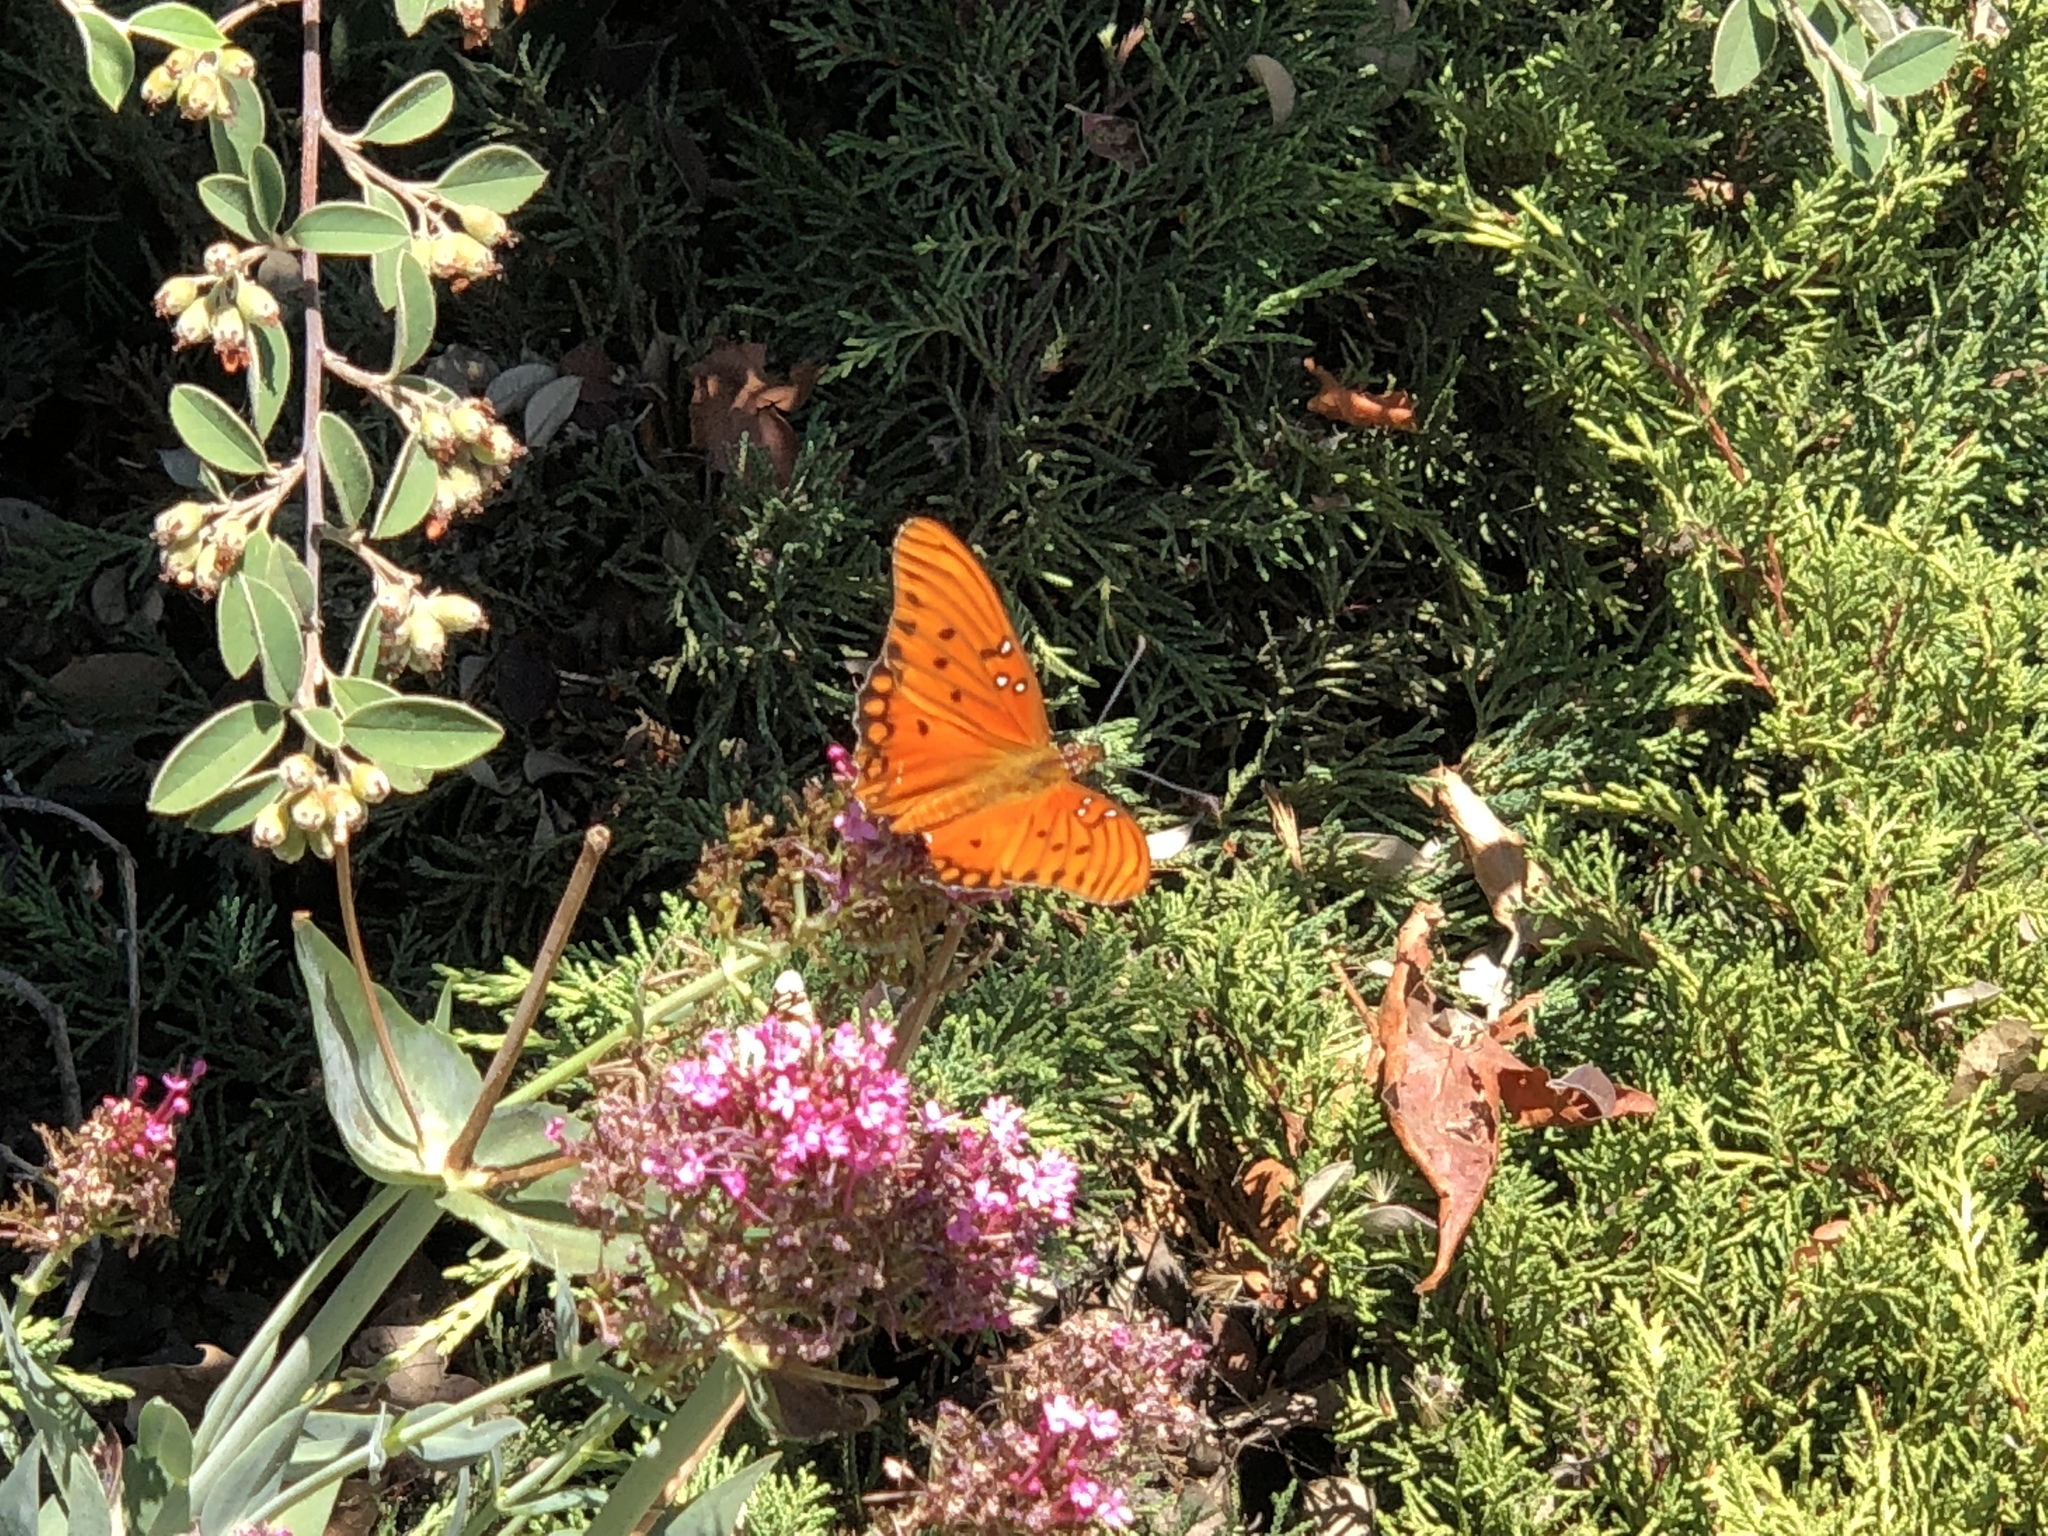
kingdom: Animalia
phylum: Arthropoda
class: Insecta
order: Lepidoptera
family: Nymphalidae
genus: Dione
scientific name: Dione vanillae
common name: Gulf fritillary
